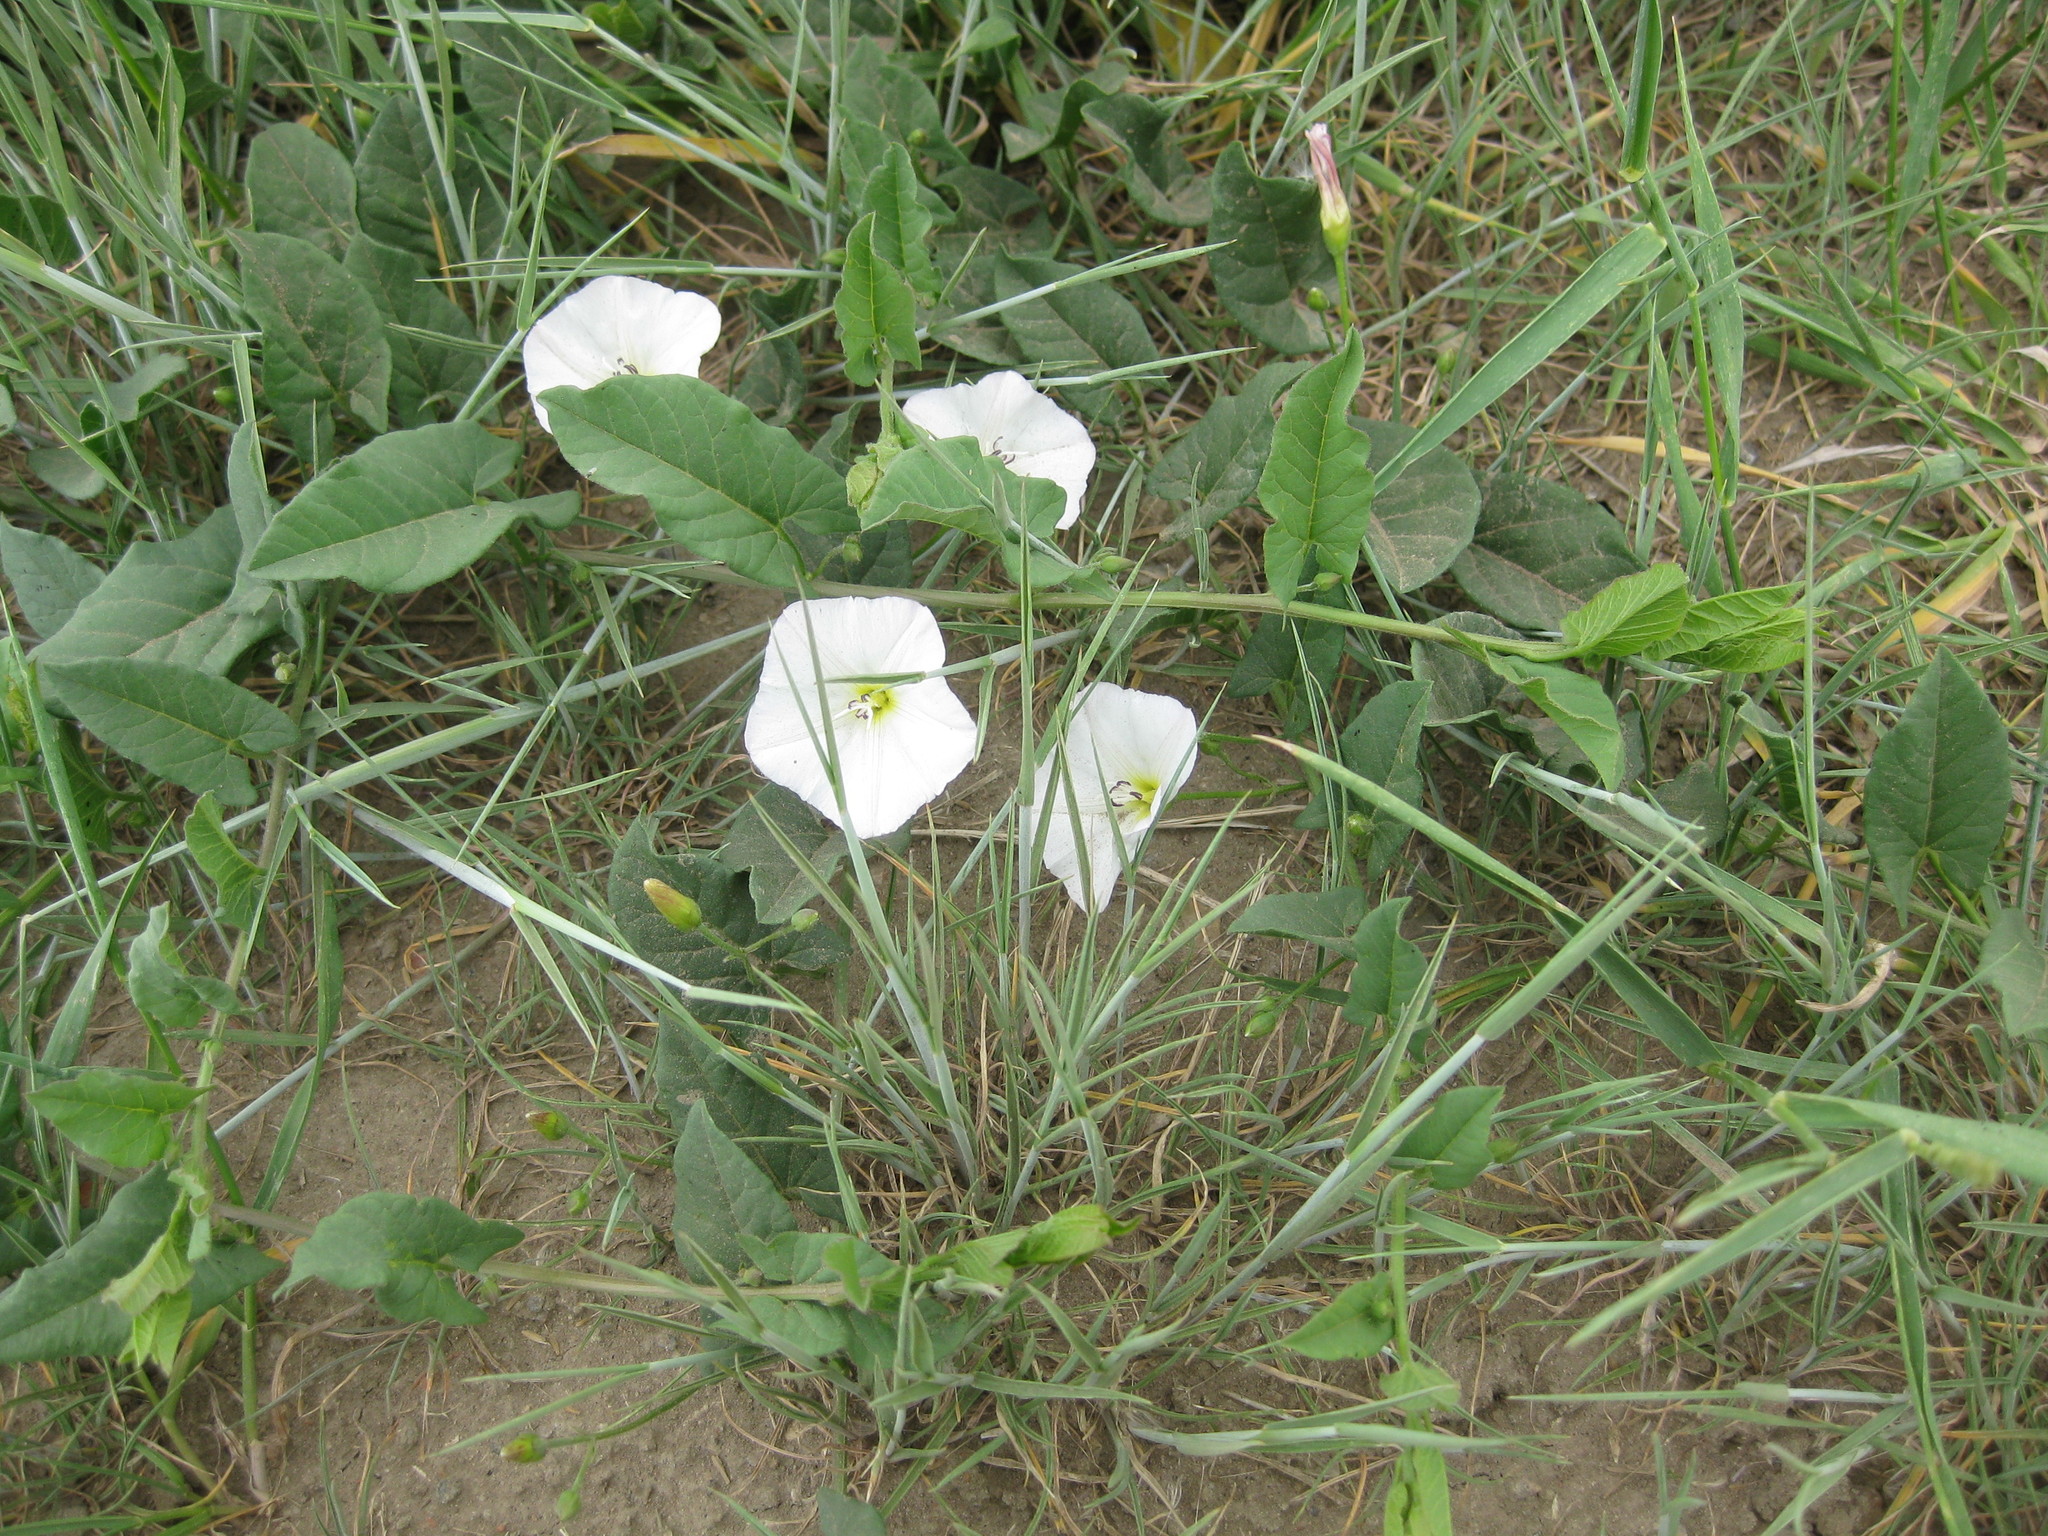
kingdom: Plantae
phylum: Tracheophyta
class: Magnoliopsida
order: Solanales
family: Convolvulaceae
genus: Convolvulus
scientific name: Convolvulus arvensis
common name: Field bindweed
